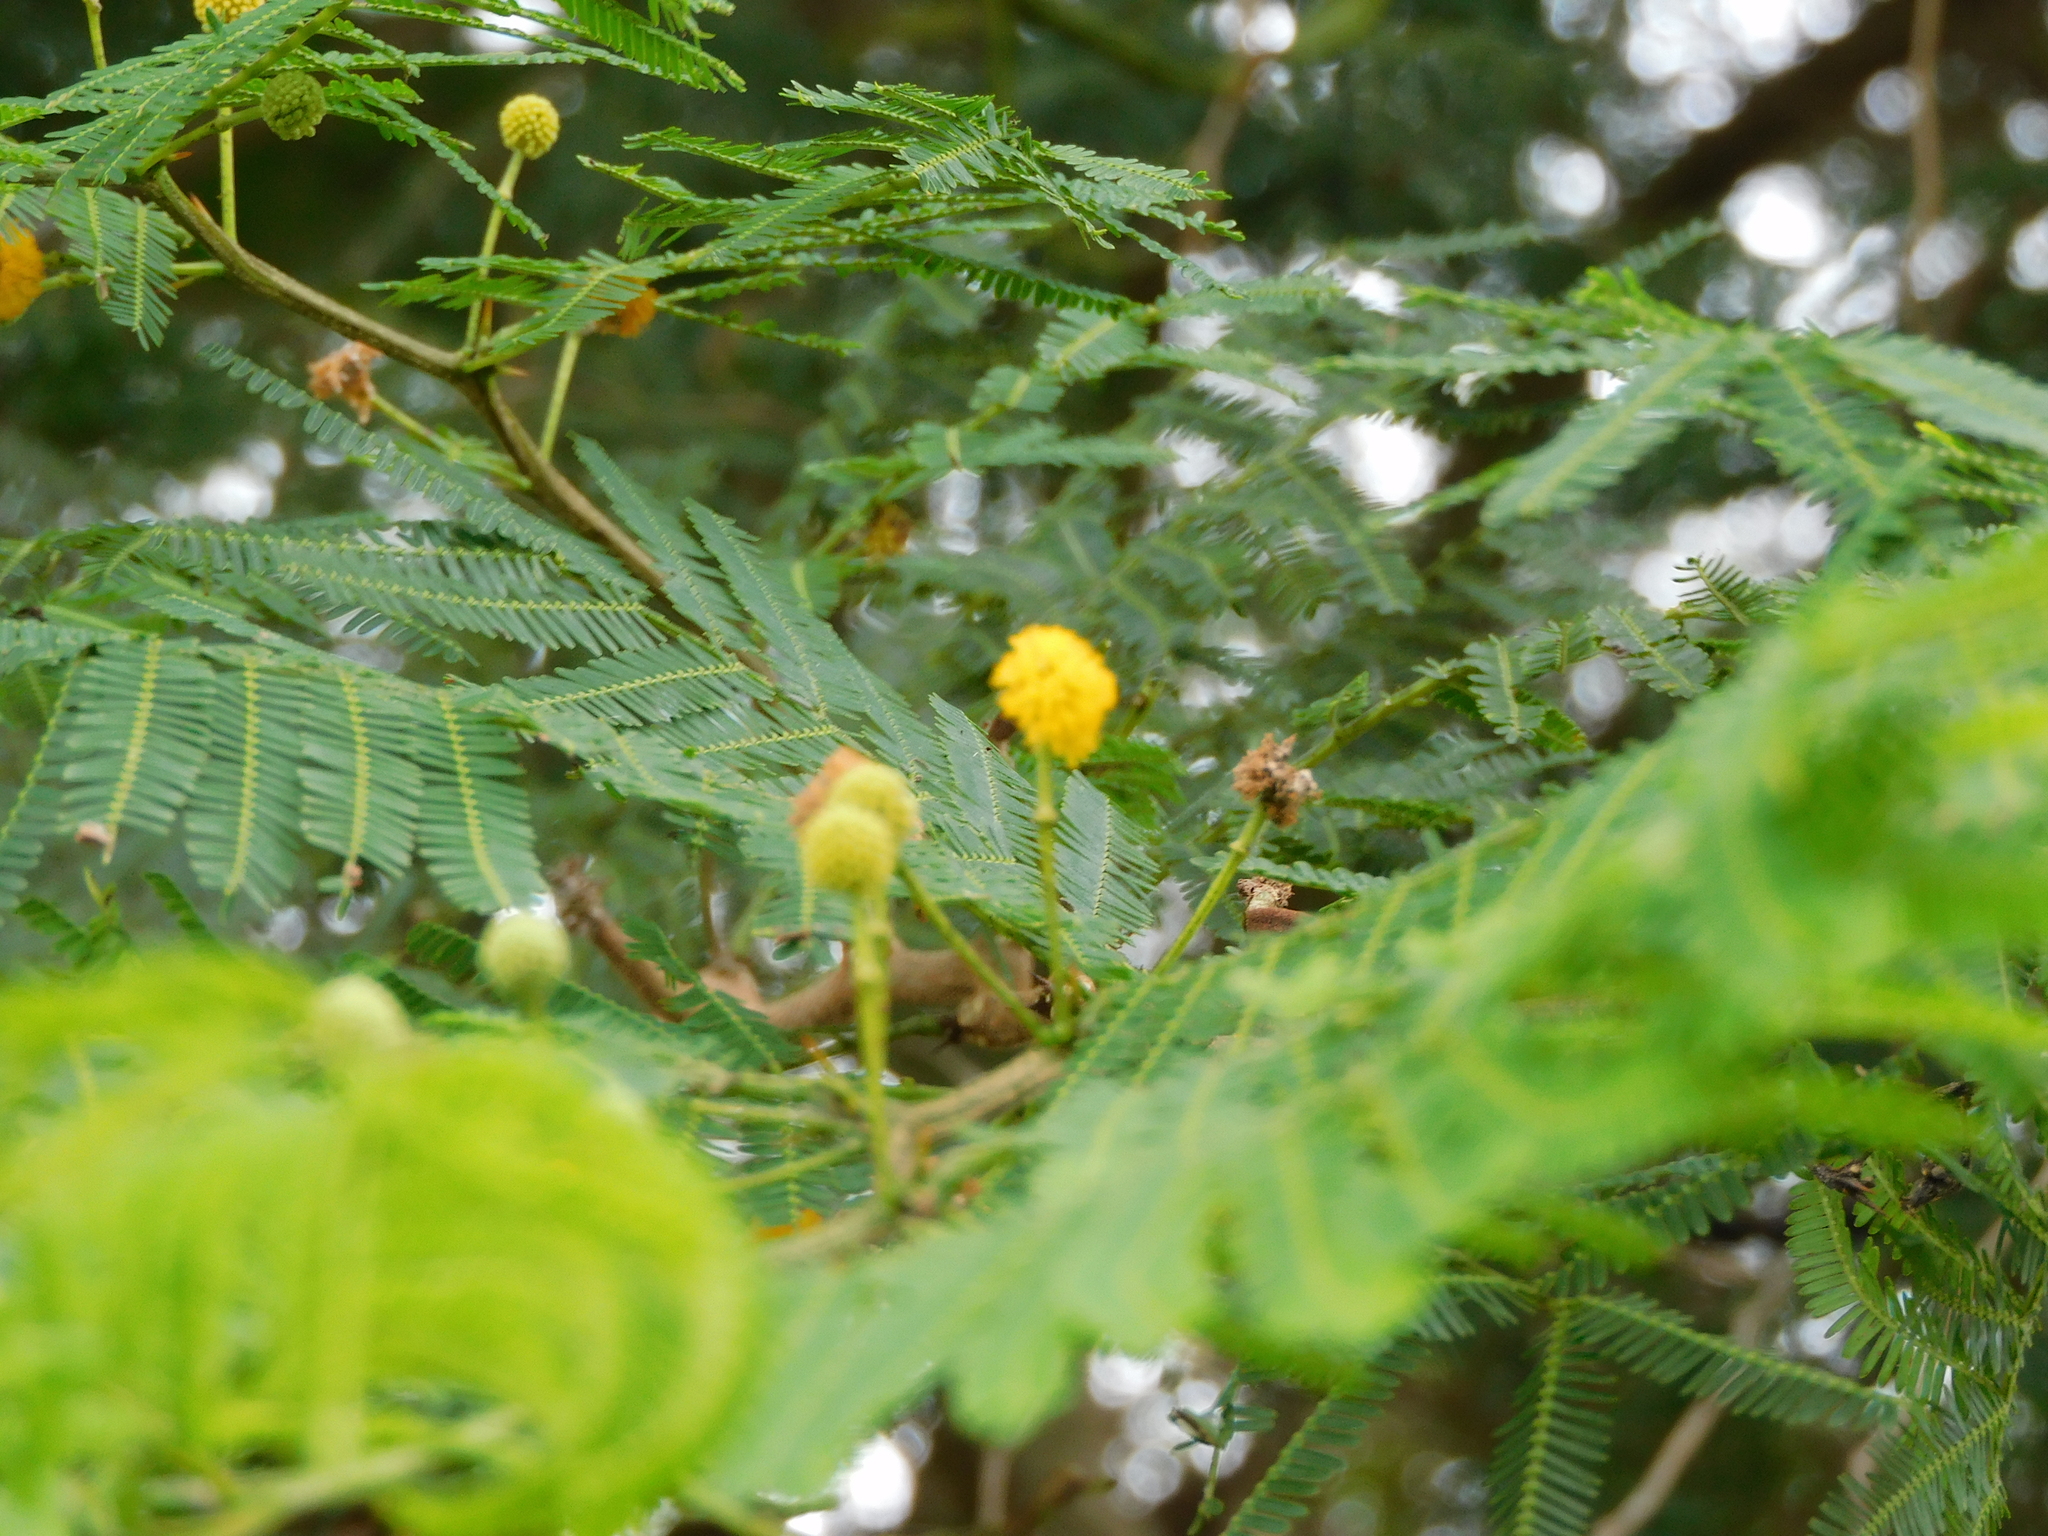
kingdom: Plantae
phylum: Tracheophyta
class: Magnoliopsida
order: Fabales
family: Fabaceae
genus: Vachellia
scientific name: Vachellia farnesiana
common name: Sweet acacia
